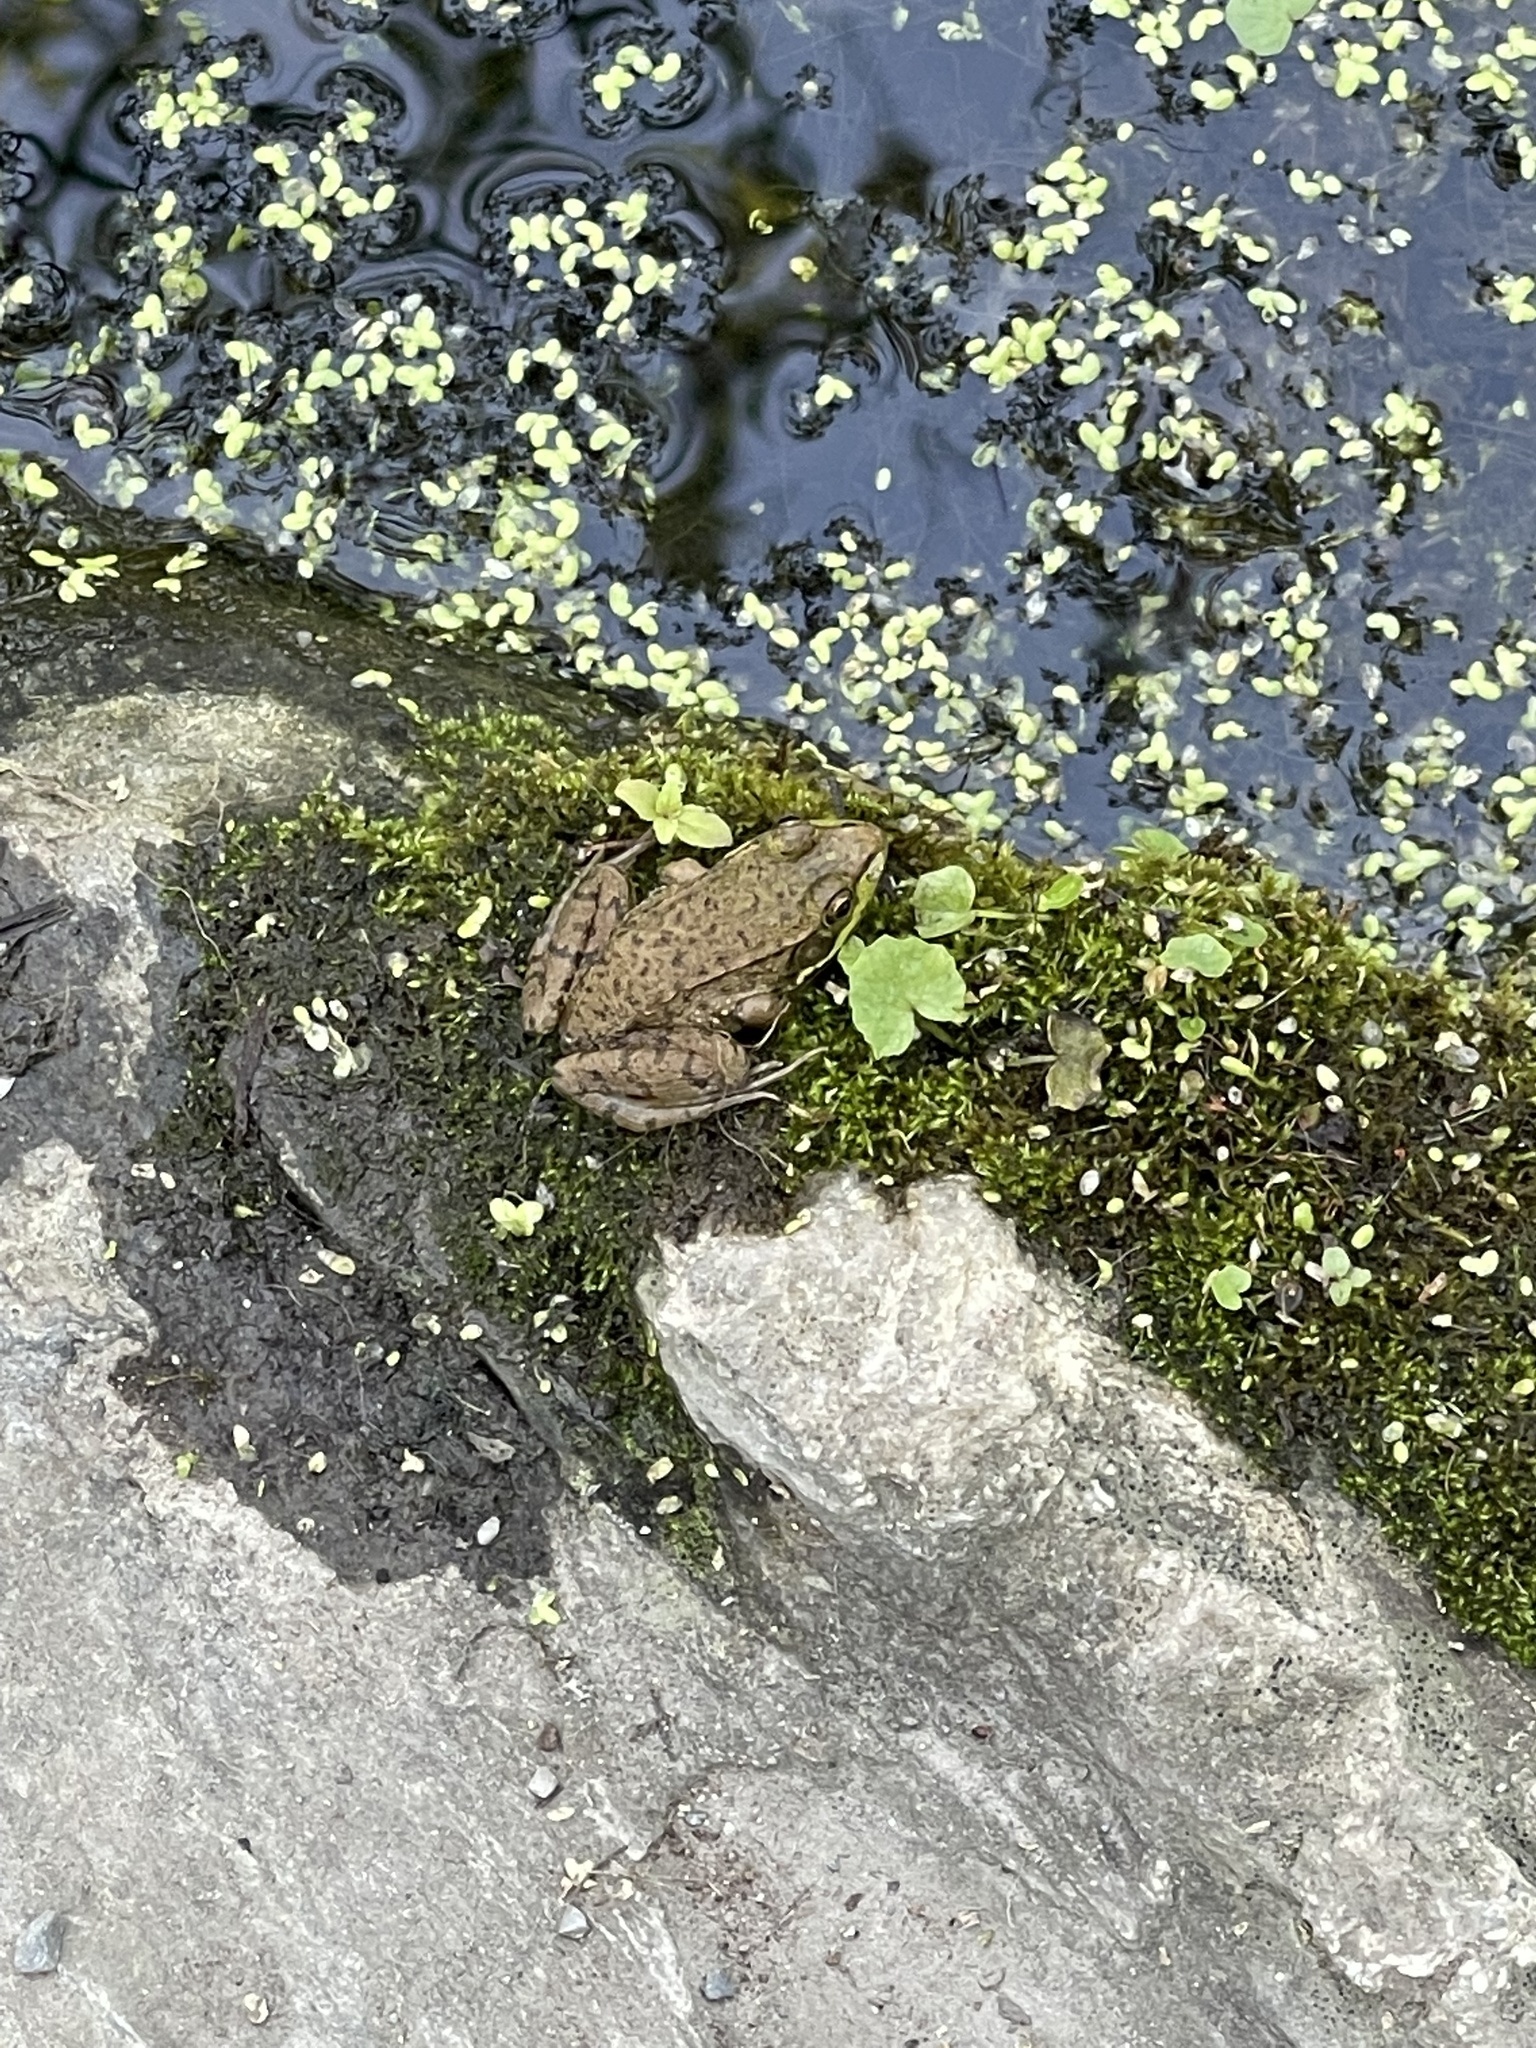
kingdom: Animalia
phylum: Chordata
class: Amphibia
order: Anura
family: Ranidae
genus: Lithobates
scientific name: Lithobates clamitans
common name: Green frog
